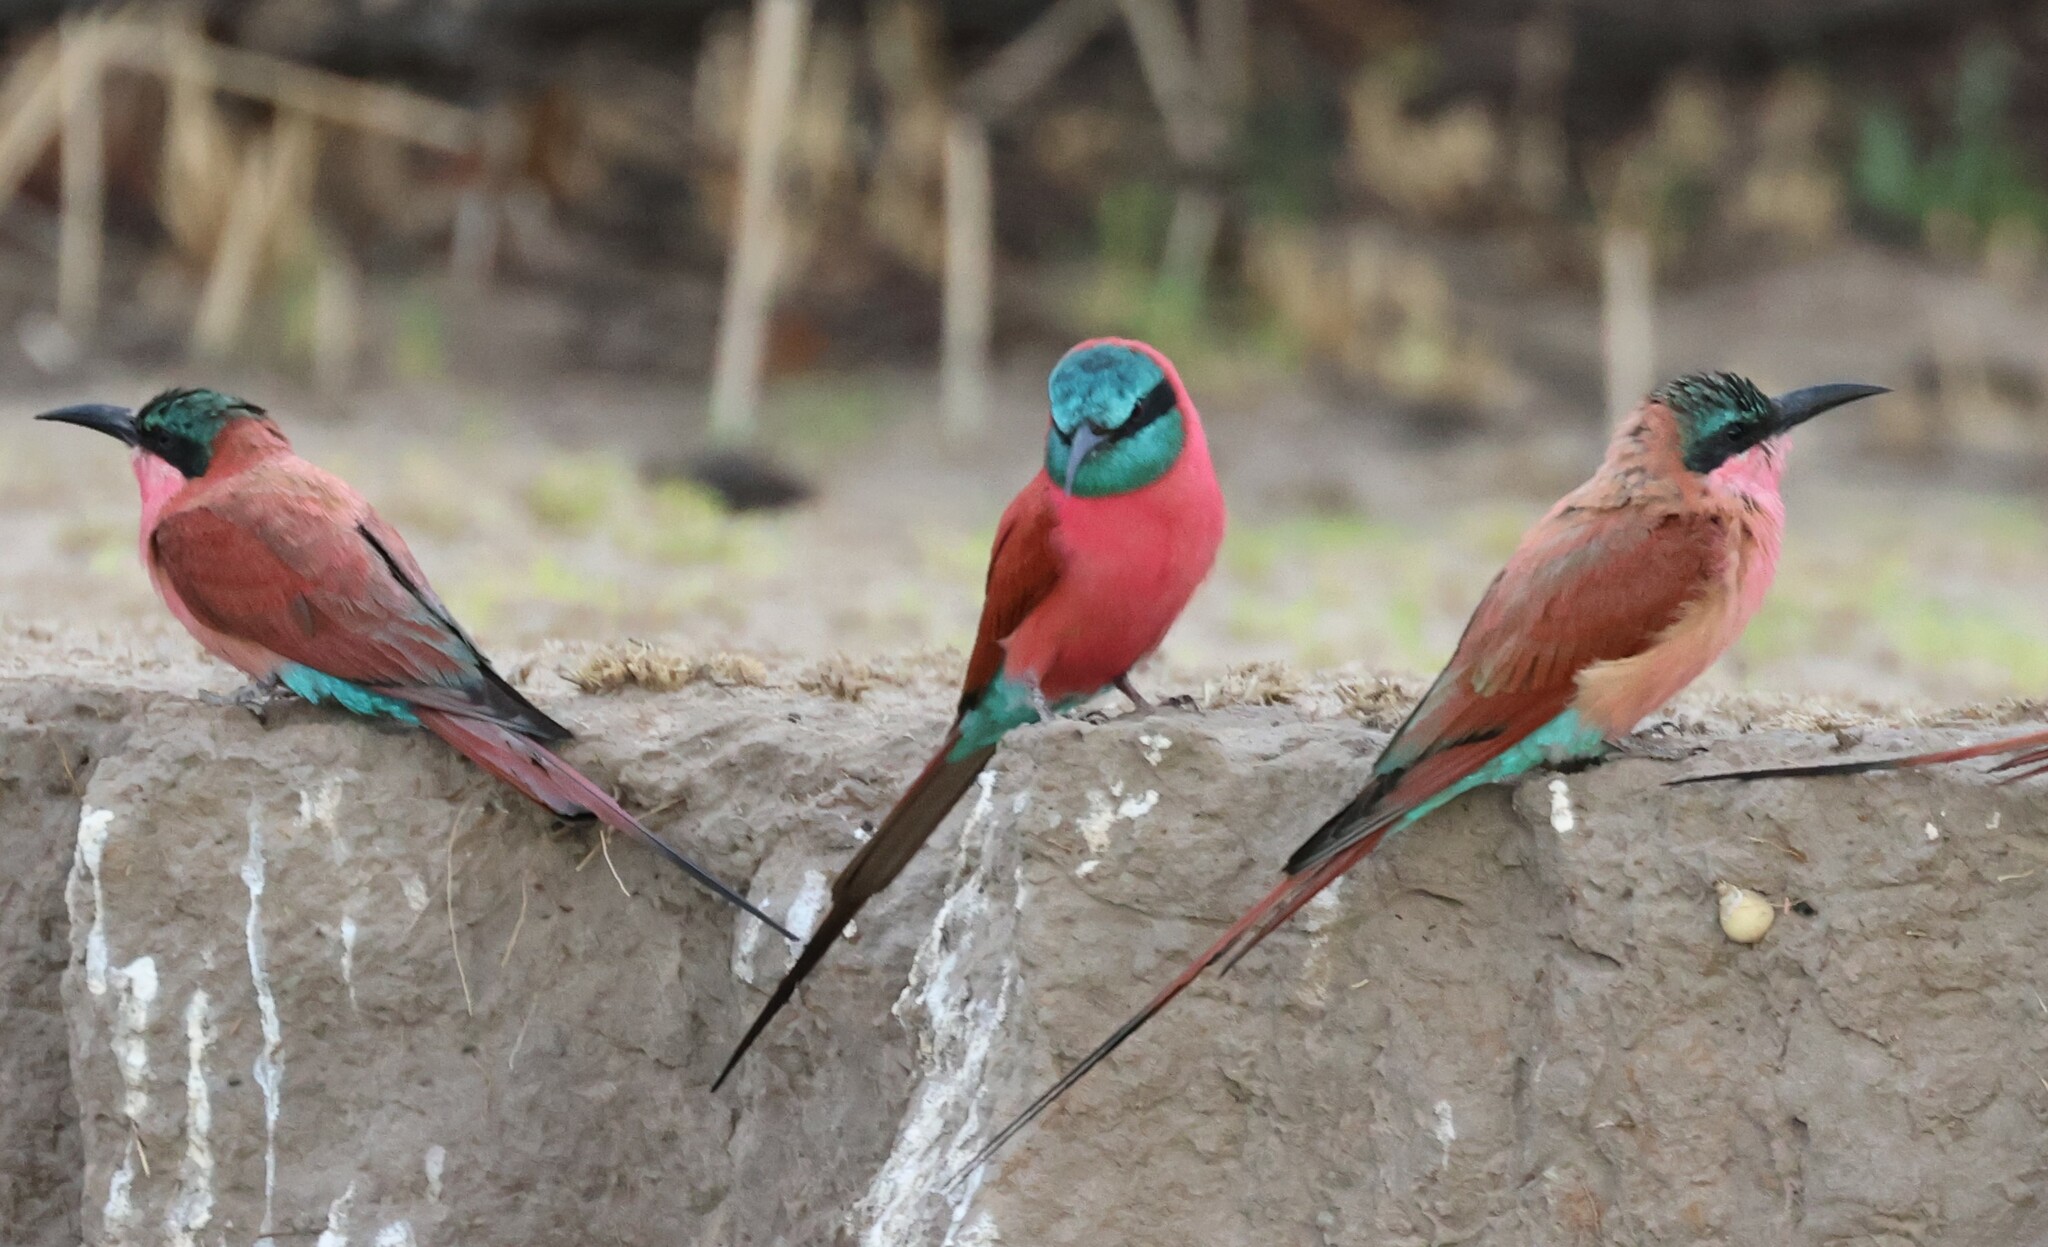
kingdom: Animalia
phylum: Chordata
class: Aves
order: Coraciiformes
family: Meropidae
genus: Merops
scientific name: Merops nubicus
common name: Northern carmine bee-eater
